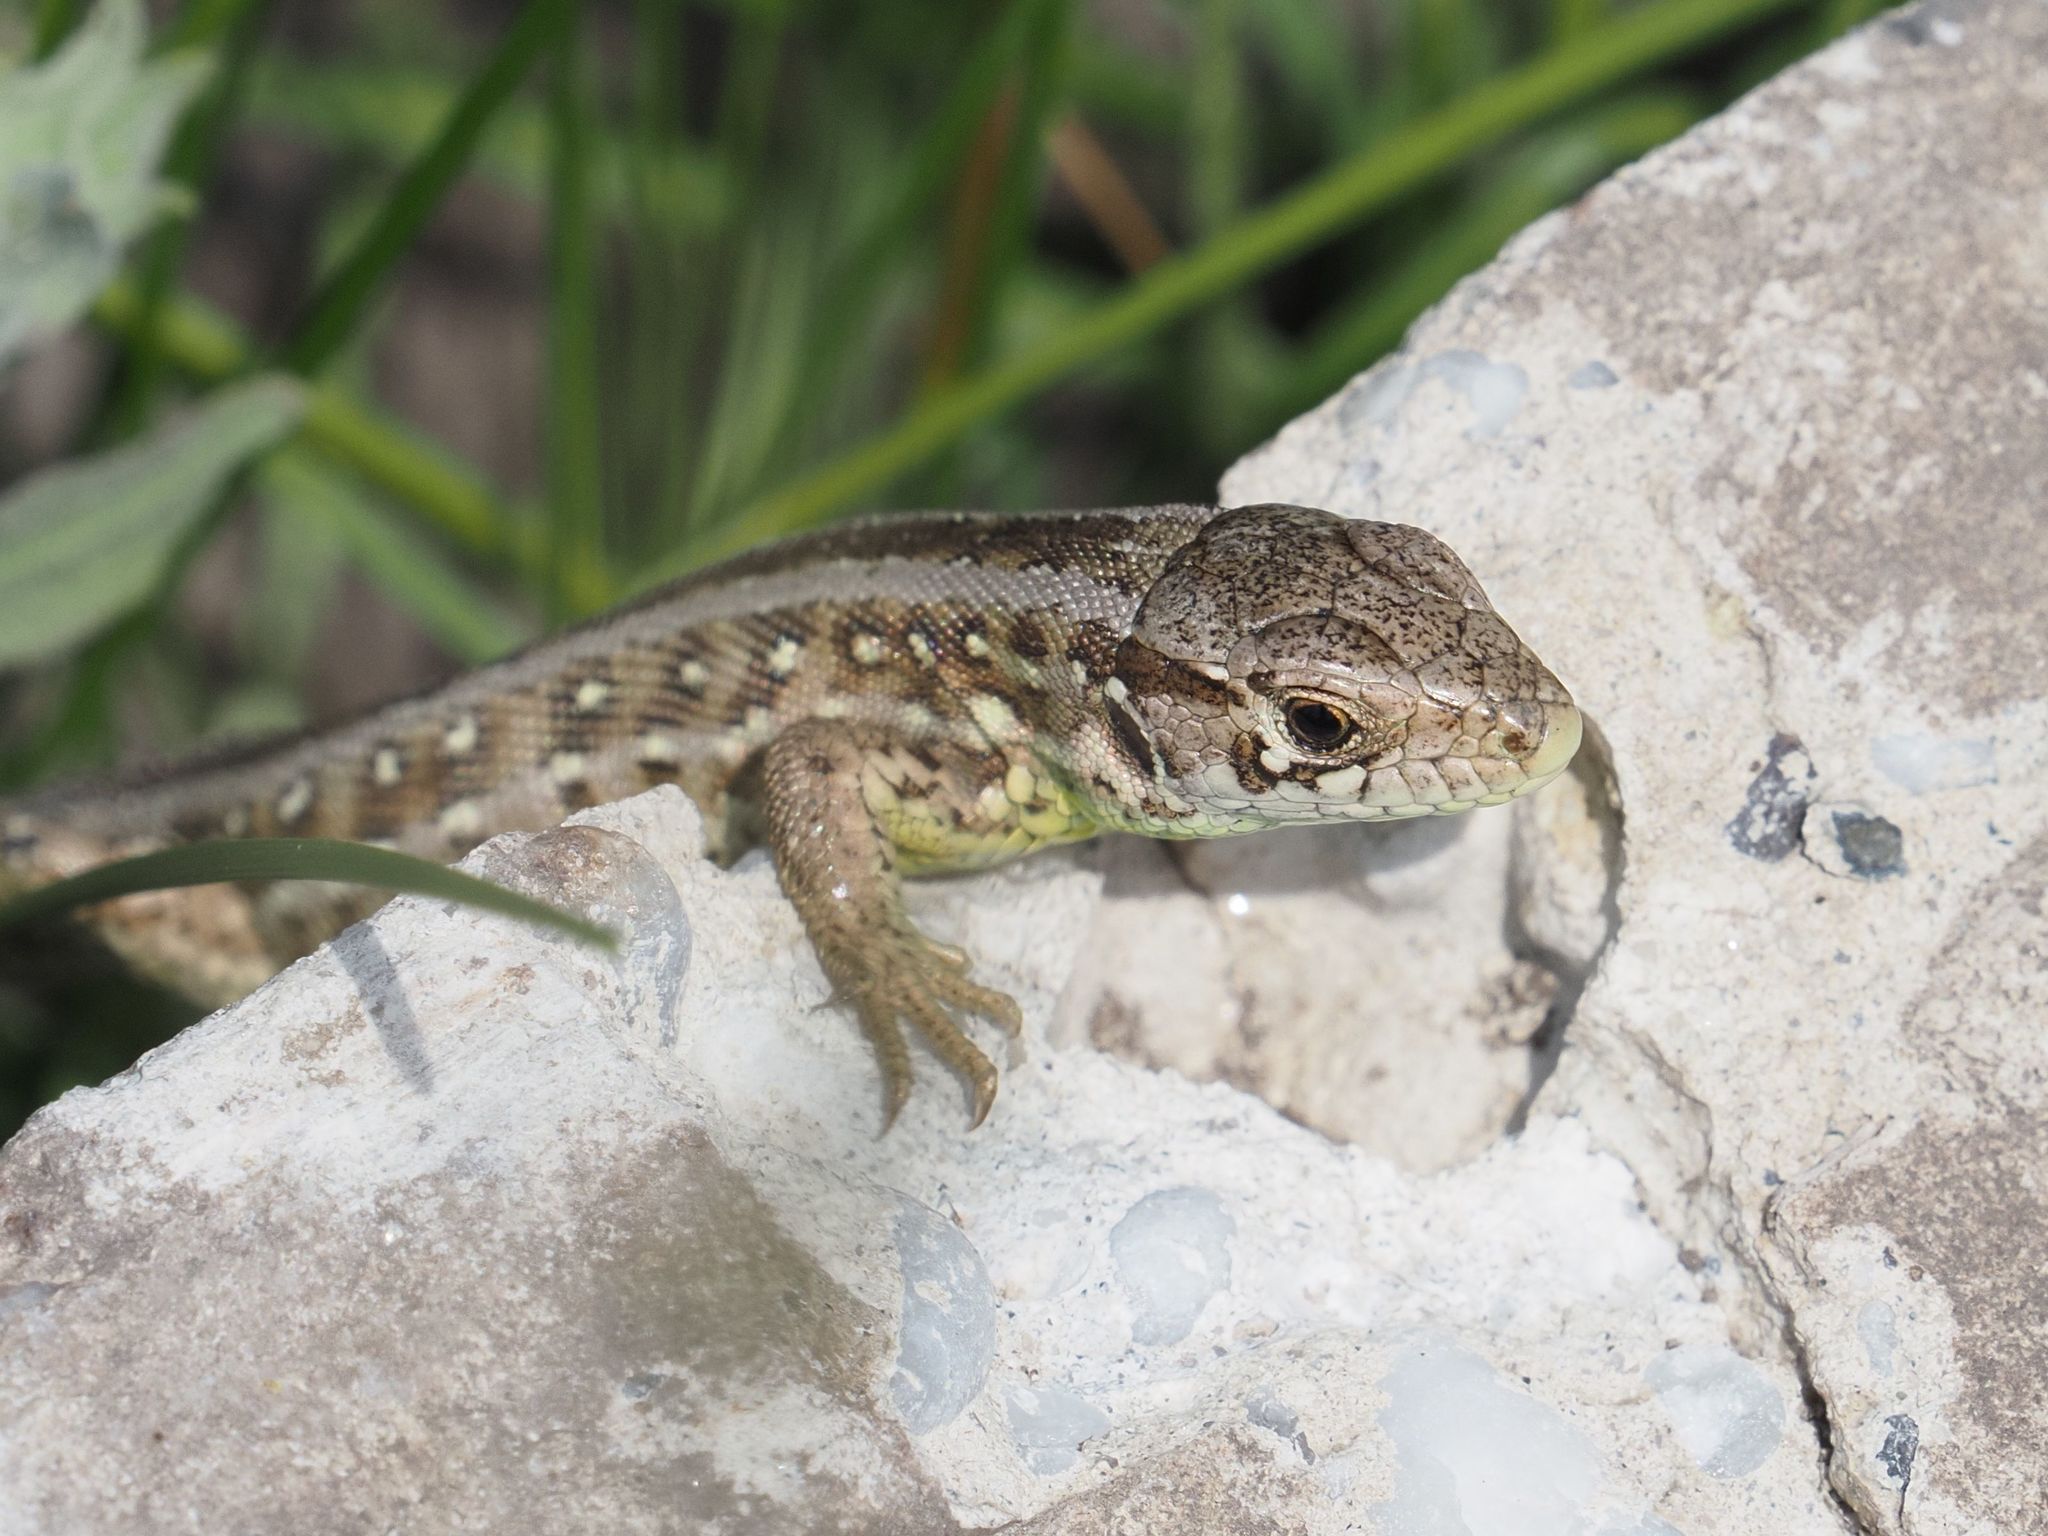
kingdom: Animalia
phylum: Chordata
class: Squamata
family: Lacertidae
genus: Lacerta
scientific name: Lacerta agilis
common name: Sand lizard
